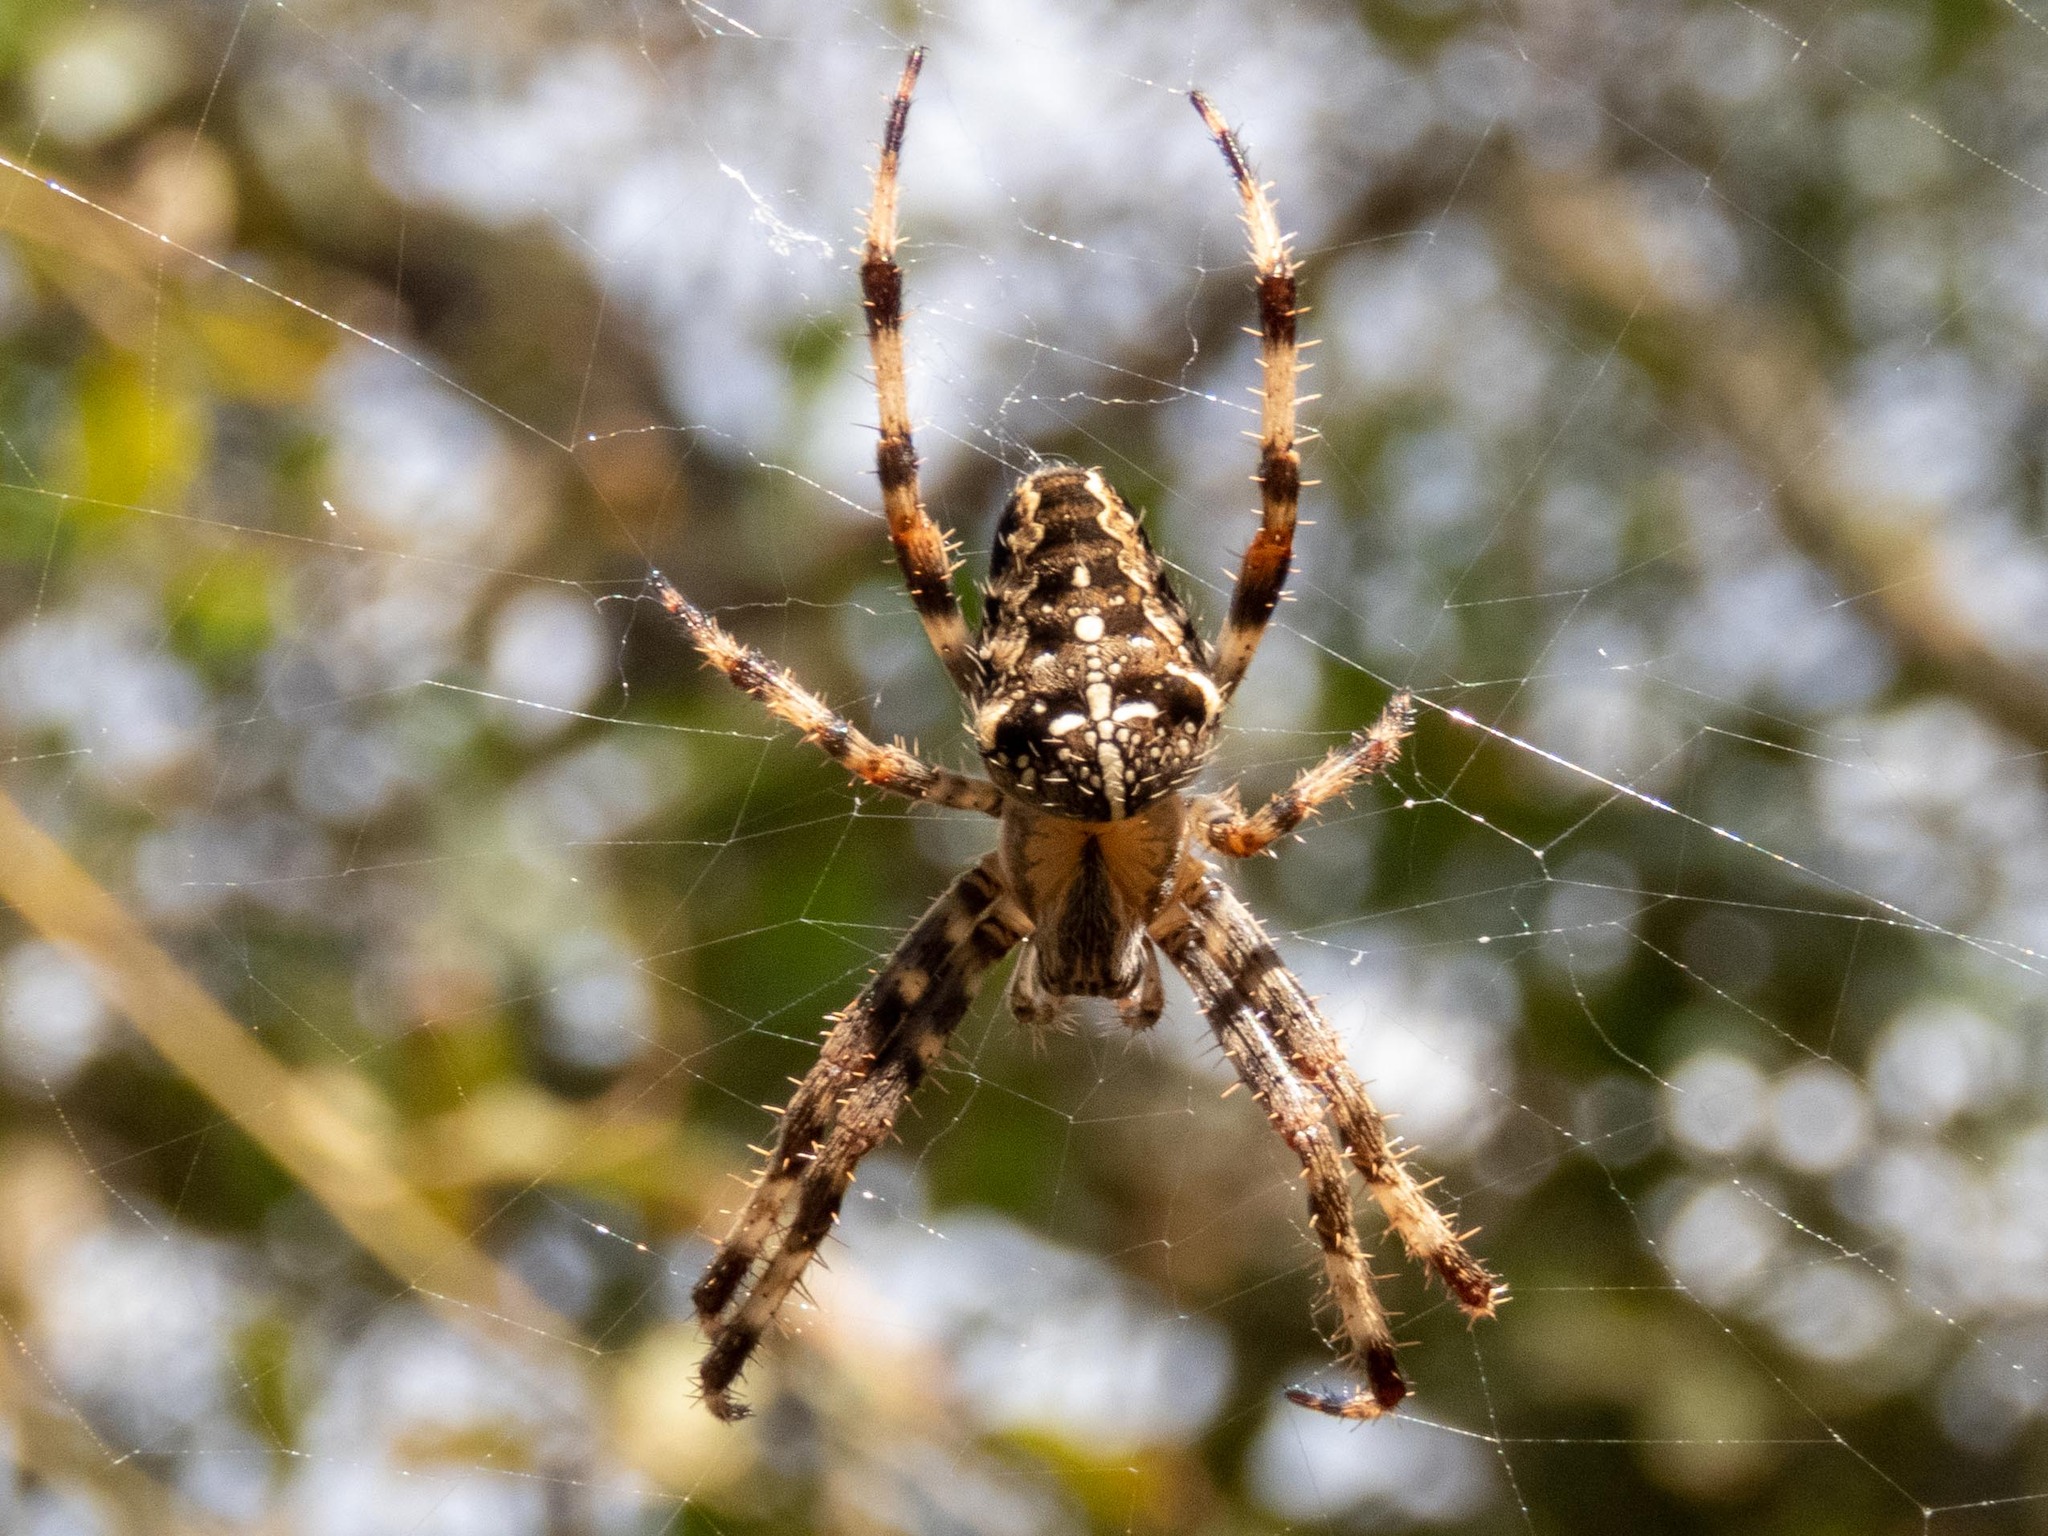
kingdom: Animalia
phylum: Arthropoda
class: Arachnida
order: Araneae
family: Araneidae
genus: Araneus
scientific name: Araneus diadematus
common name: Cross orbweaver
